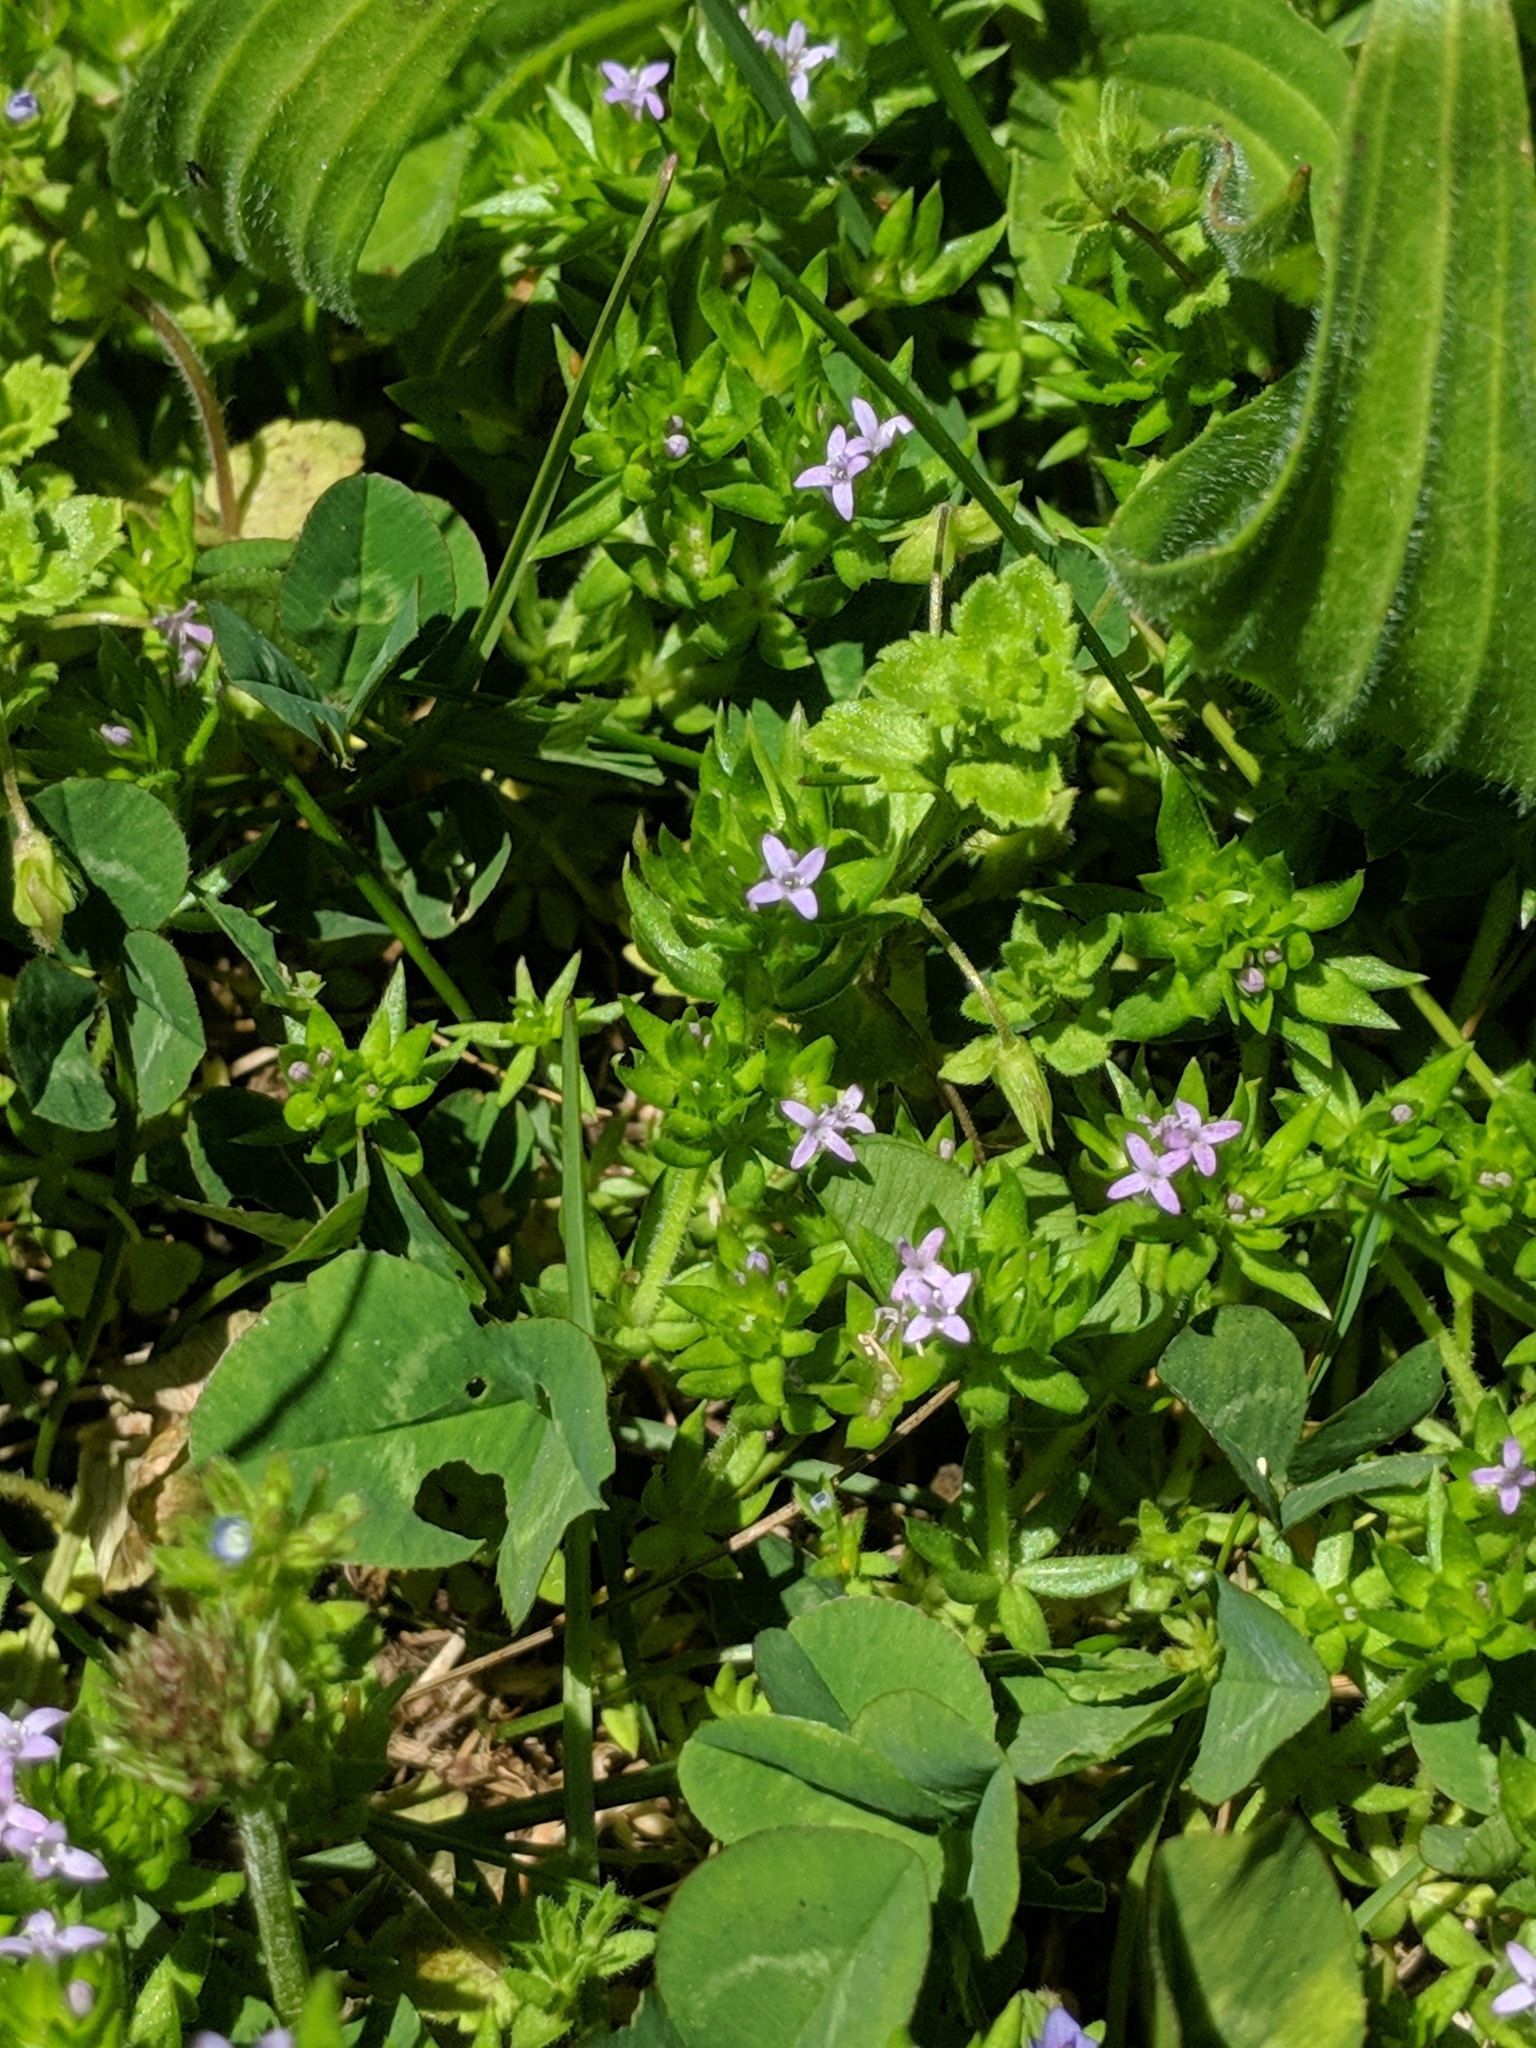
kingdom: Plantae
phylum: Tracheophyta
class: Magnoliopsida
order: Gentianales
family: Rubiaceae
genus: Sherardia
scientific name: Sherardia arvensis
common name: Field madder
